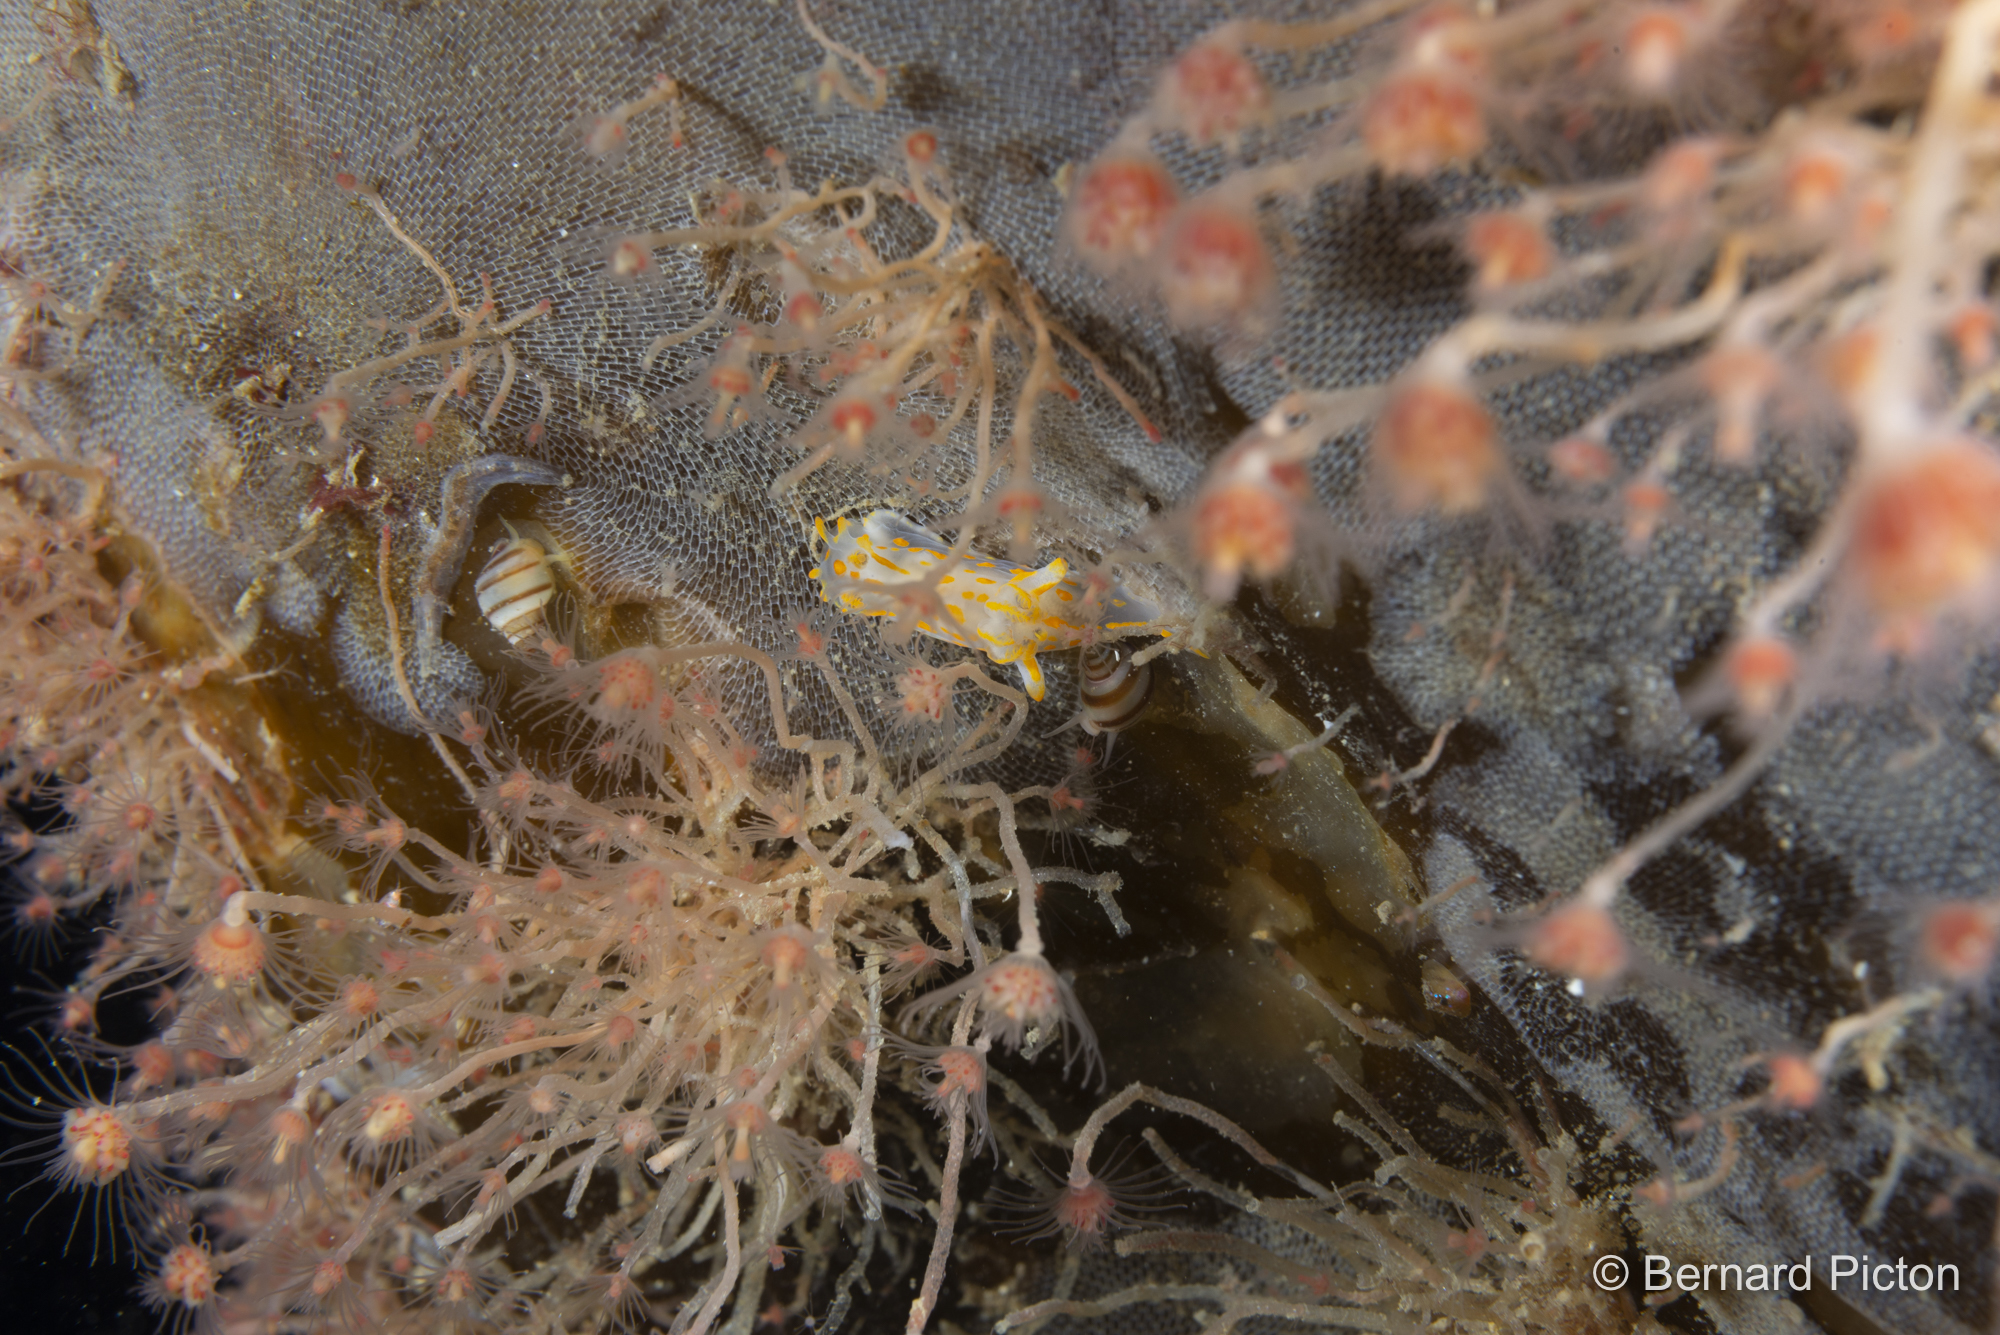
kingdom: Animalia
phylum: Mollusca
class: Gastropoda
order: Nudibranchia
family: Polyceridae
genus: Polycera
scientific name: Polycera quadrilineata
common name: Four-striped polycera
